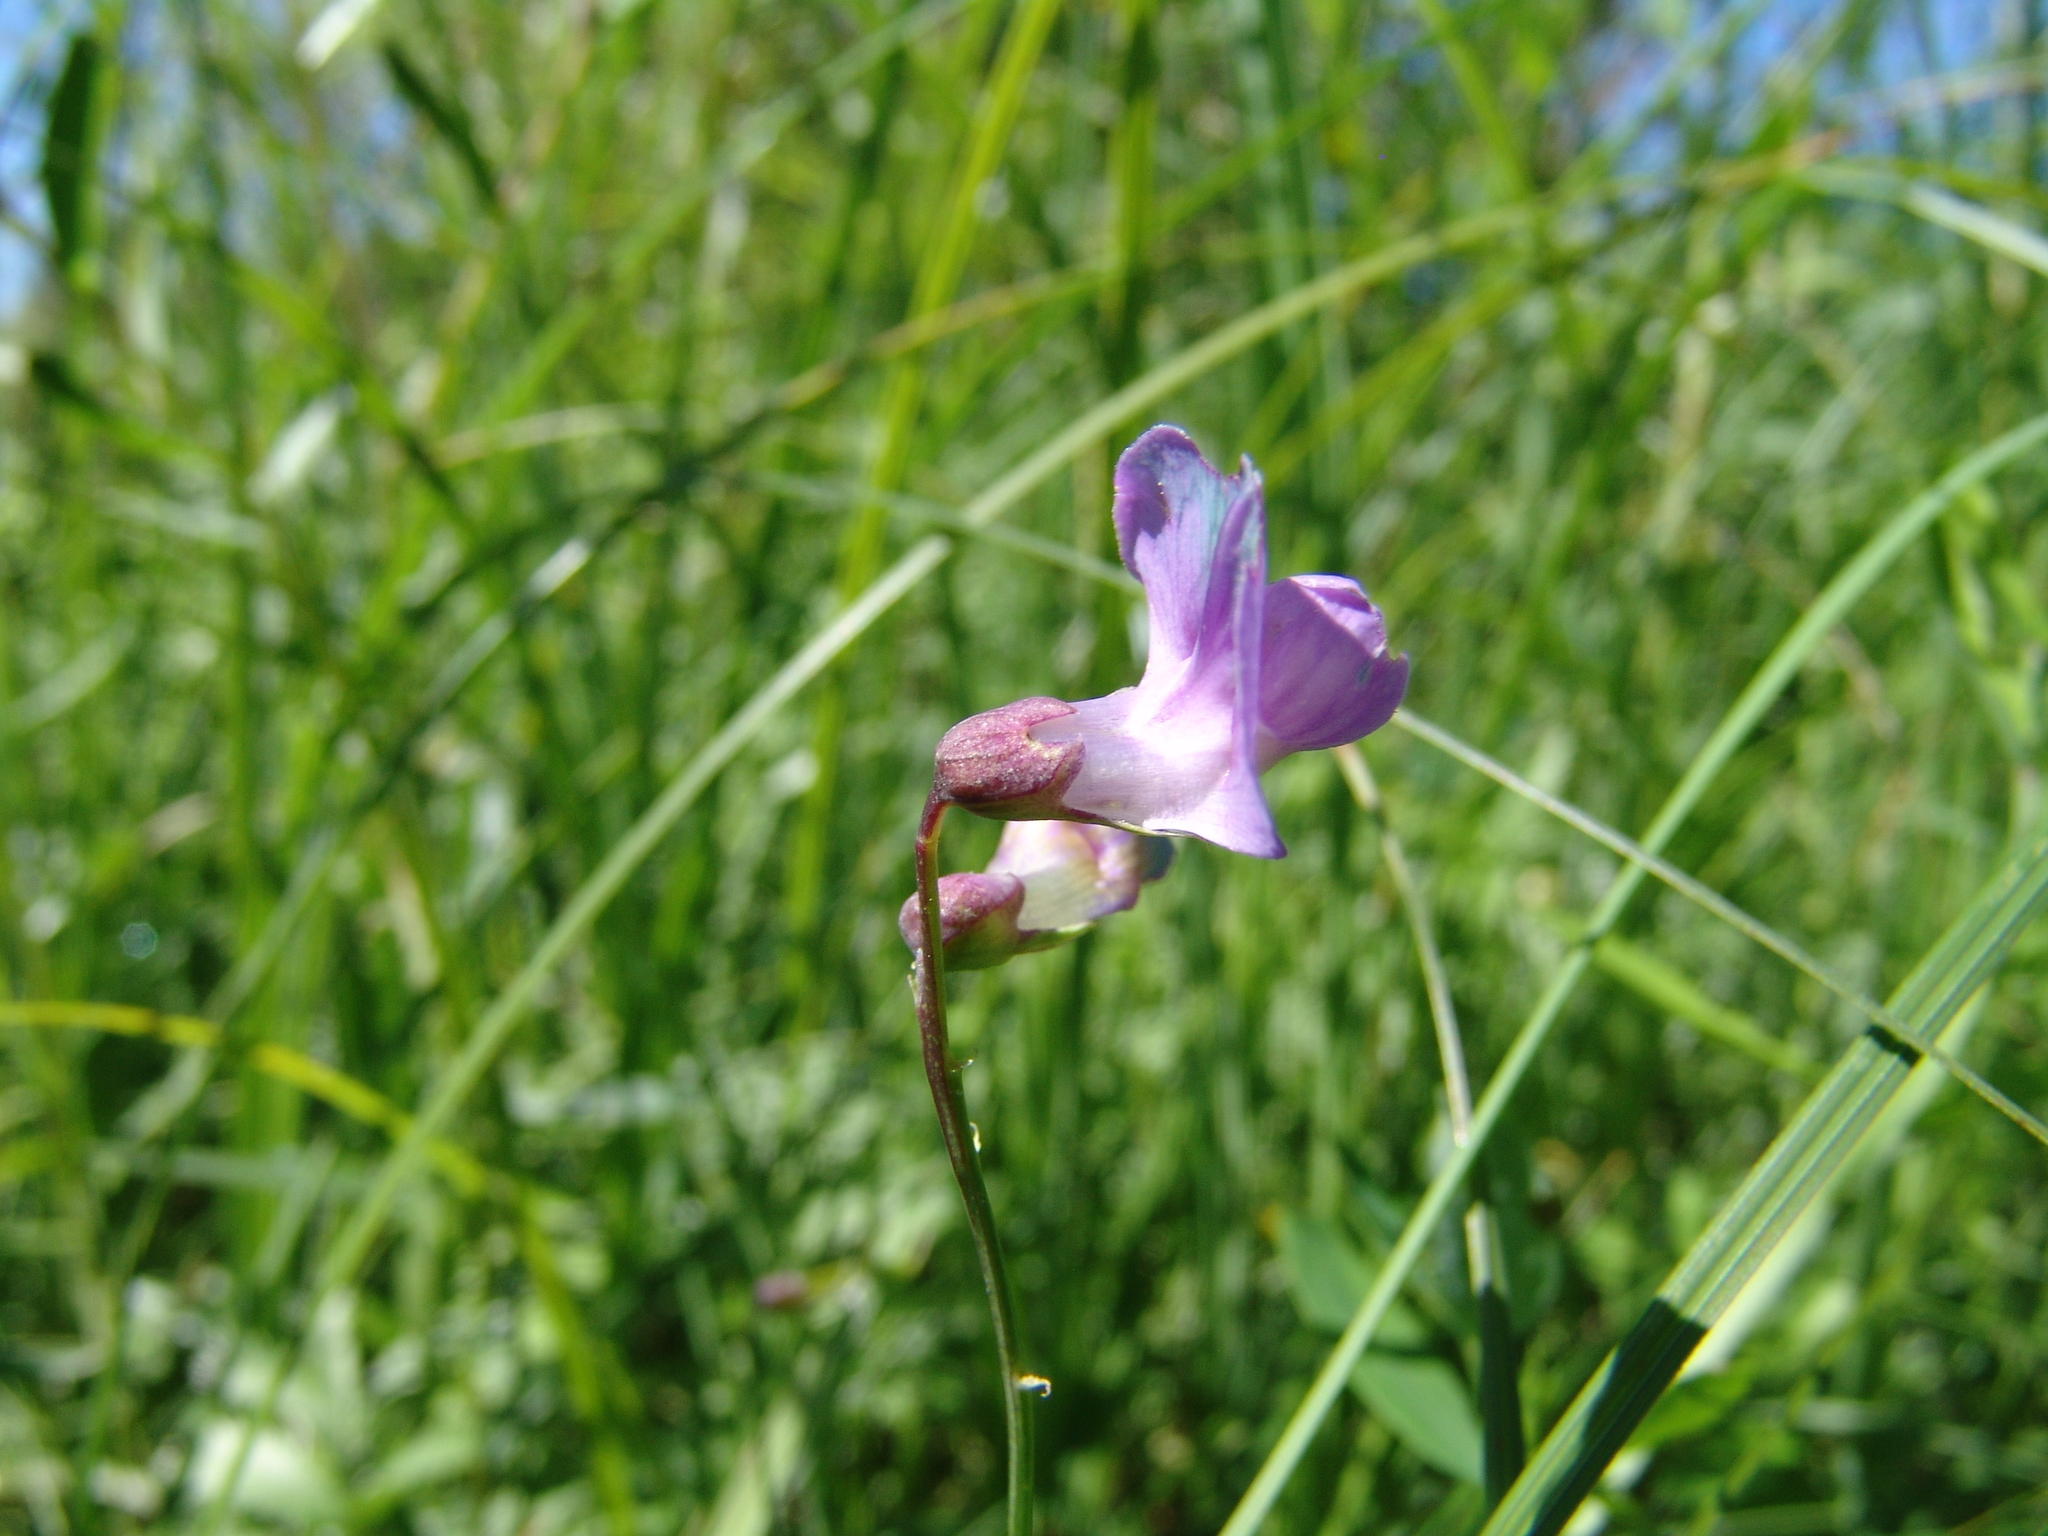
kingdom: Plantae
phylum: Tracheophyta
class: Magnoliopsida
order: Fabales
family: Fabaceae
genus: Lathyrus
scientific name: Lathyrus palustris
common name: Marsh pea
